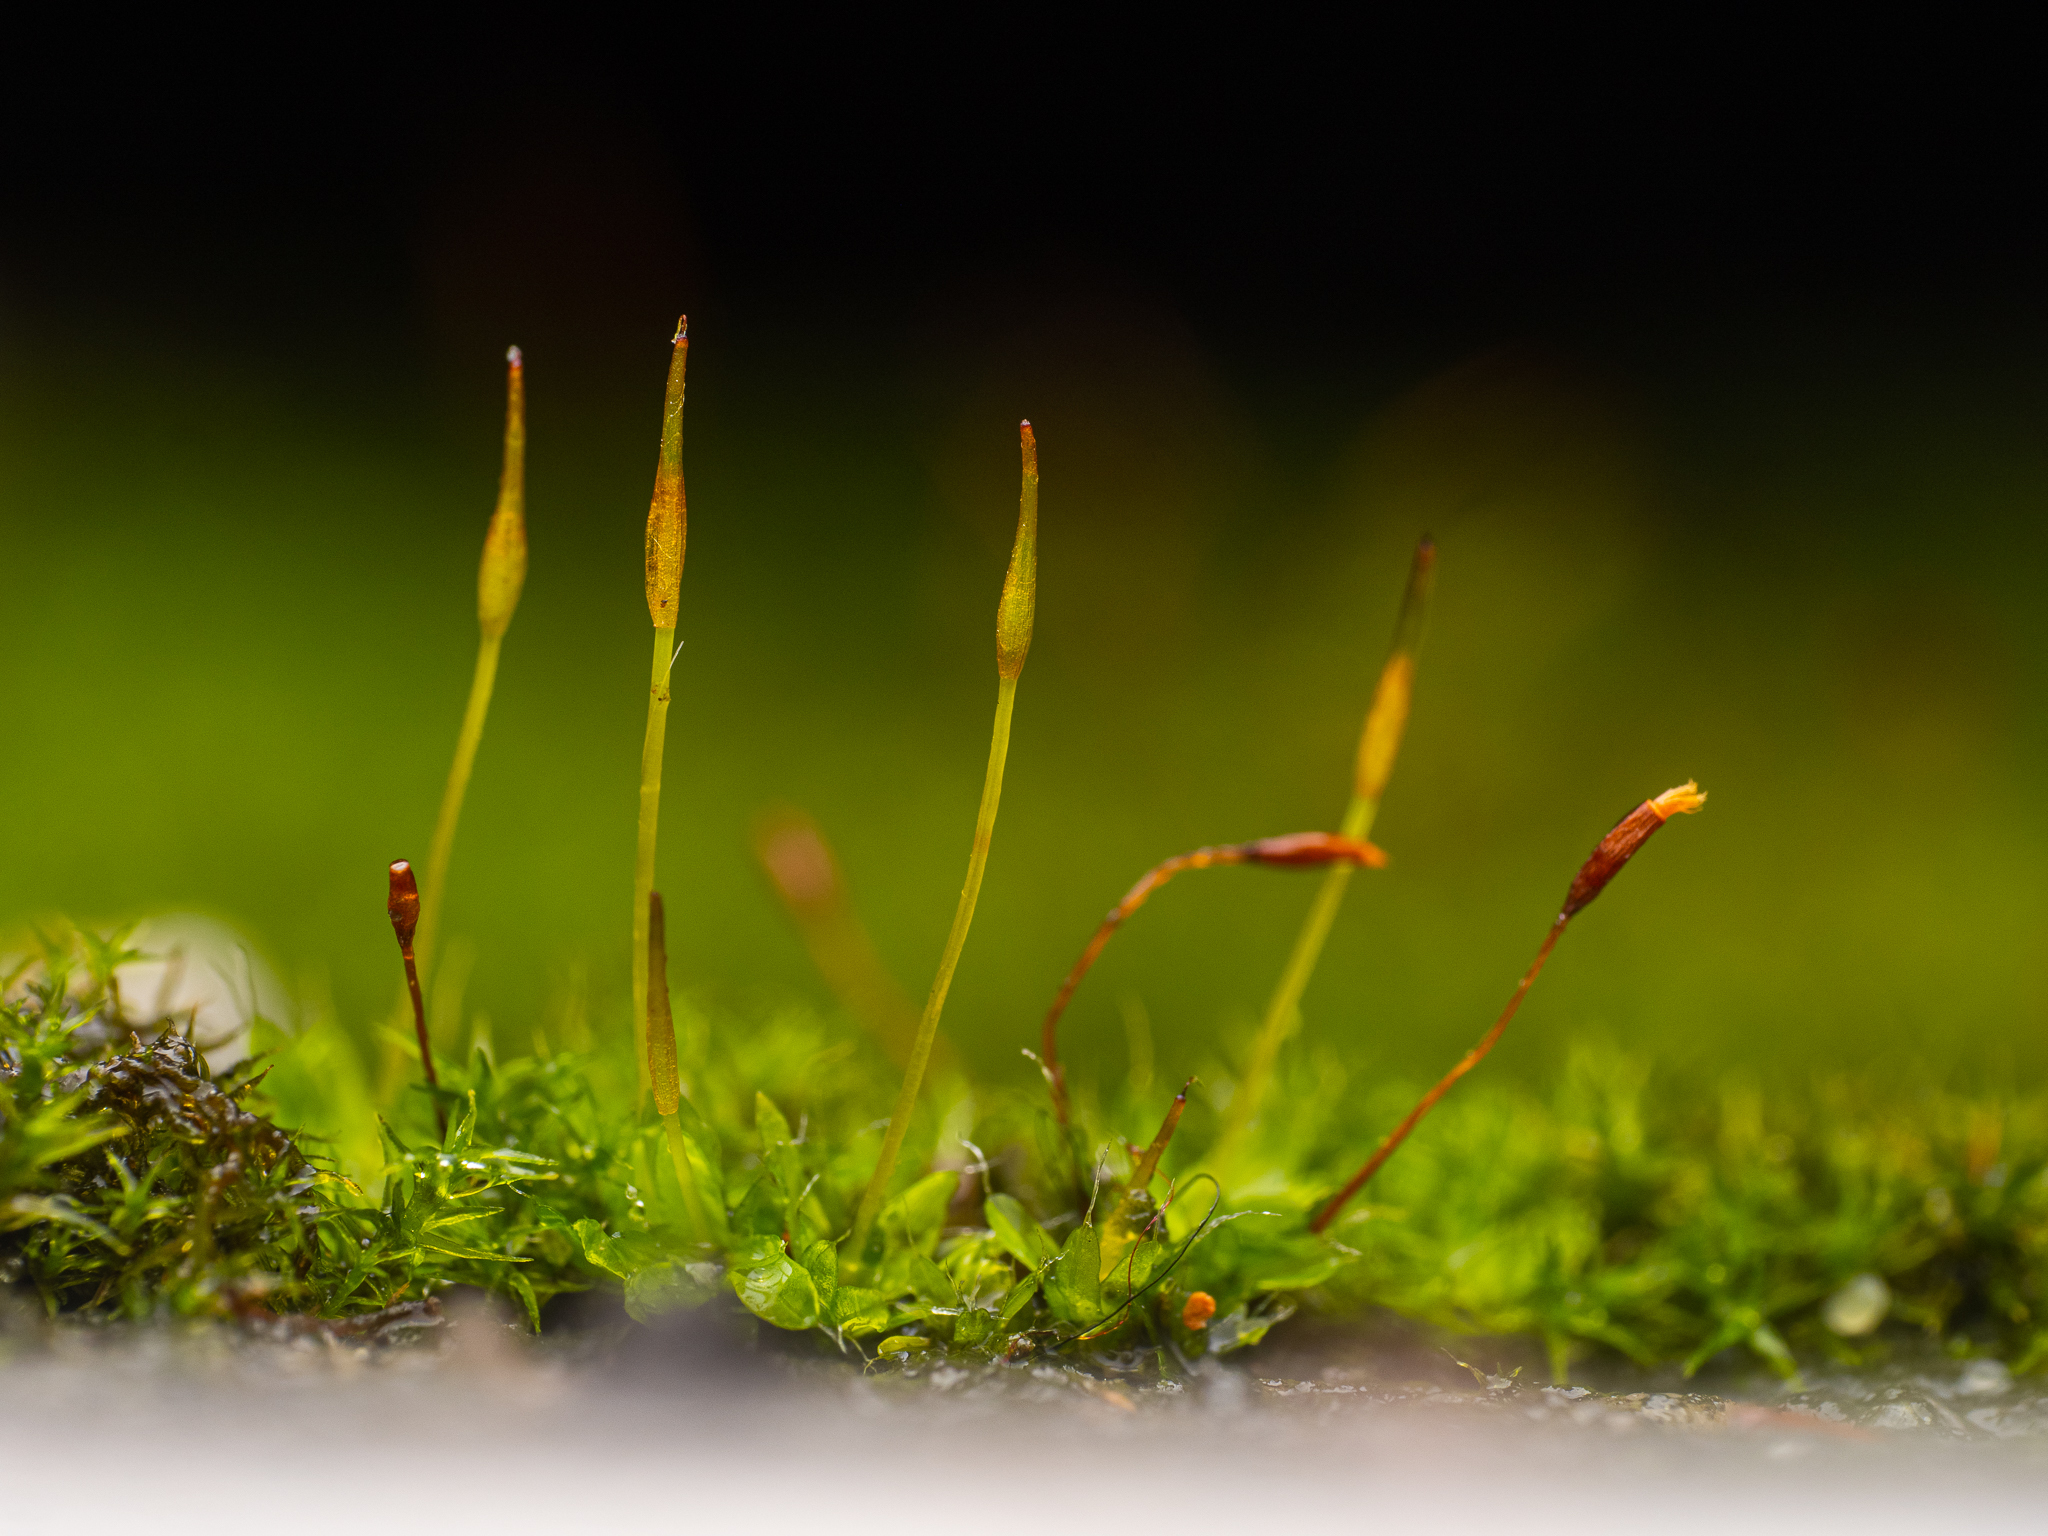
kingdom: Plantae
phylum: Bryophyta
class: Bryopsida
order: Pottiales
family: Pottiaceae
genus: Tortula
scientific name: Tortula muralis
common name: Wall screw-moss
